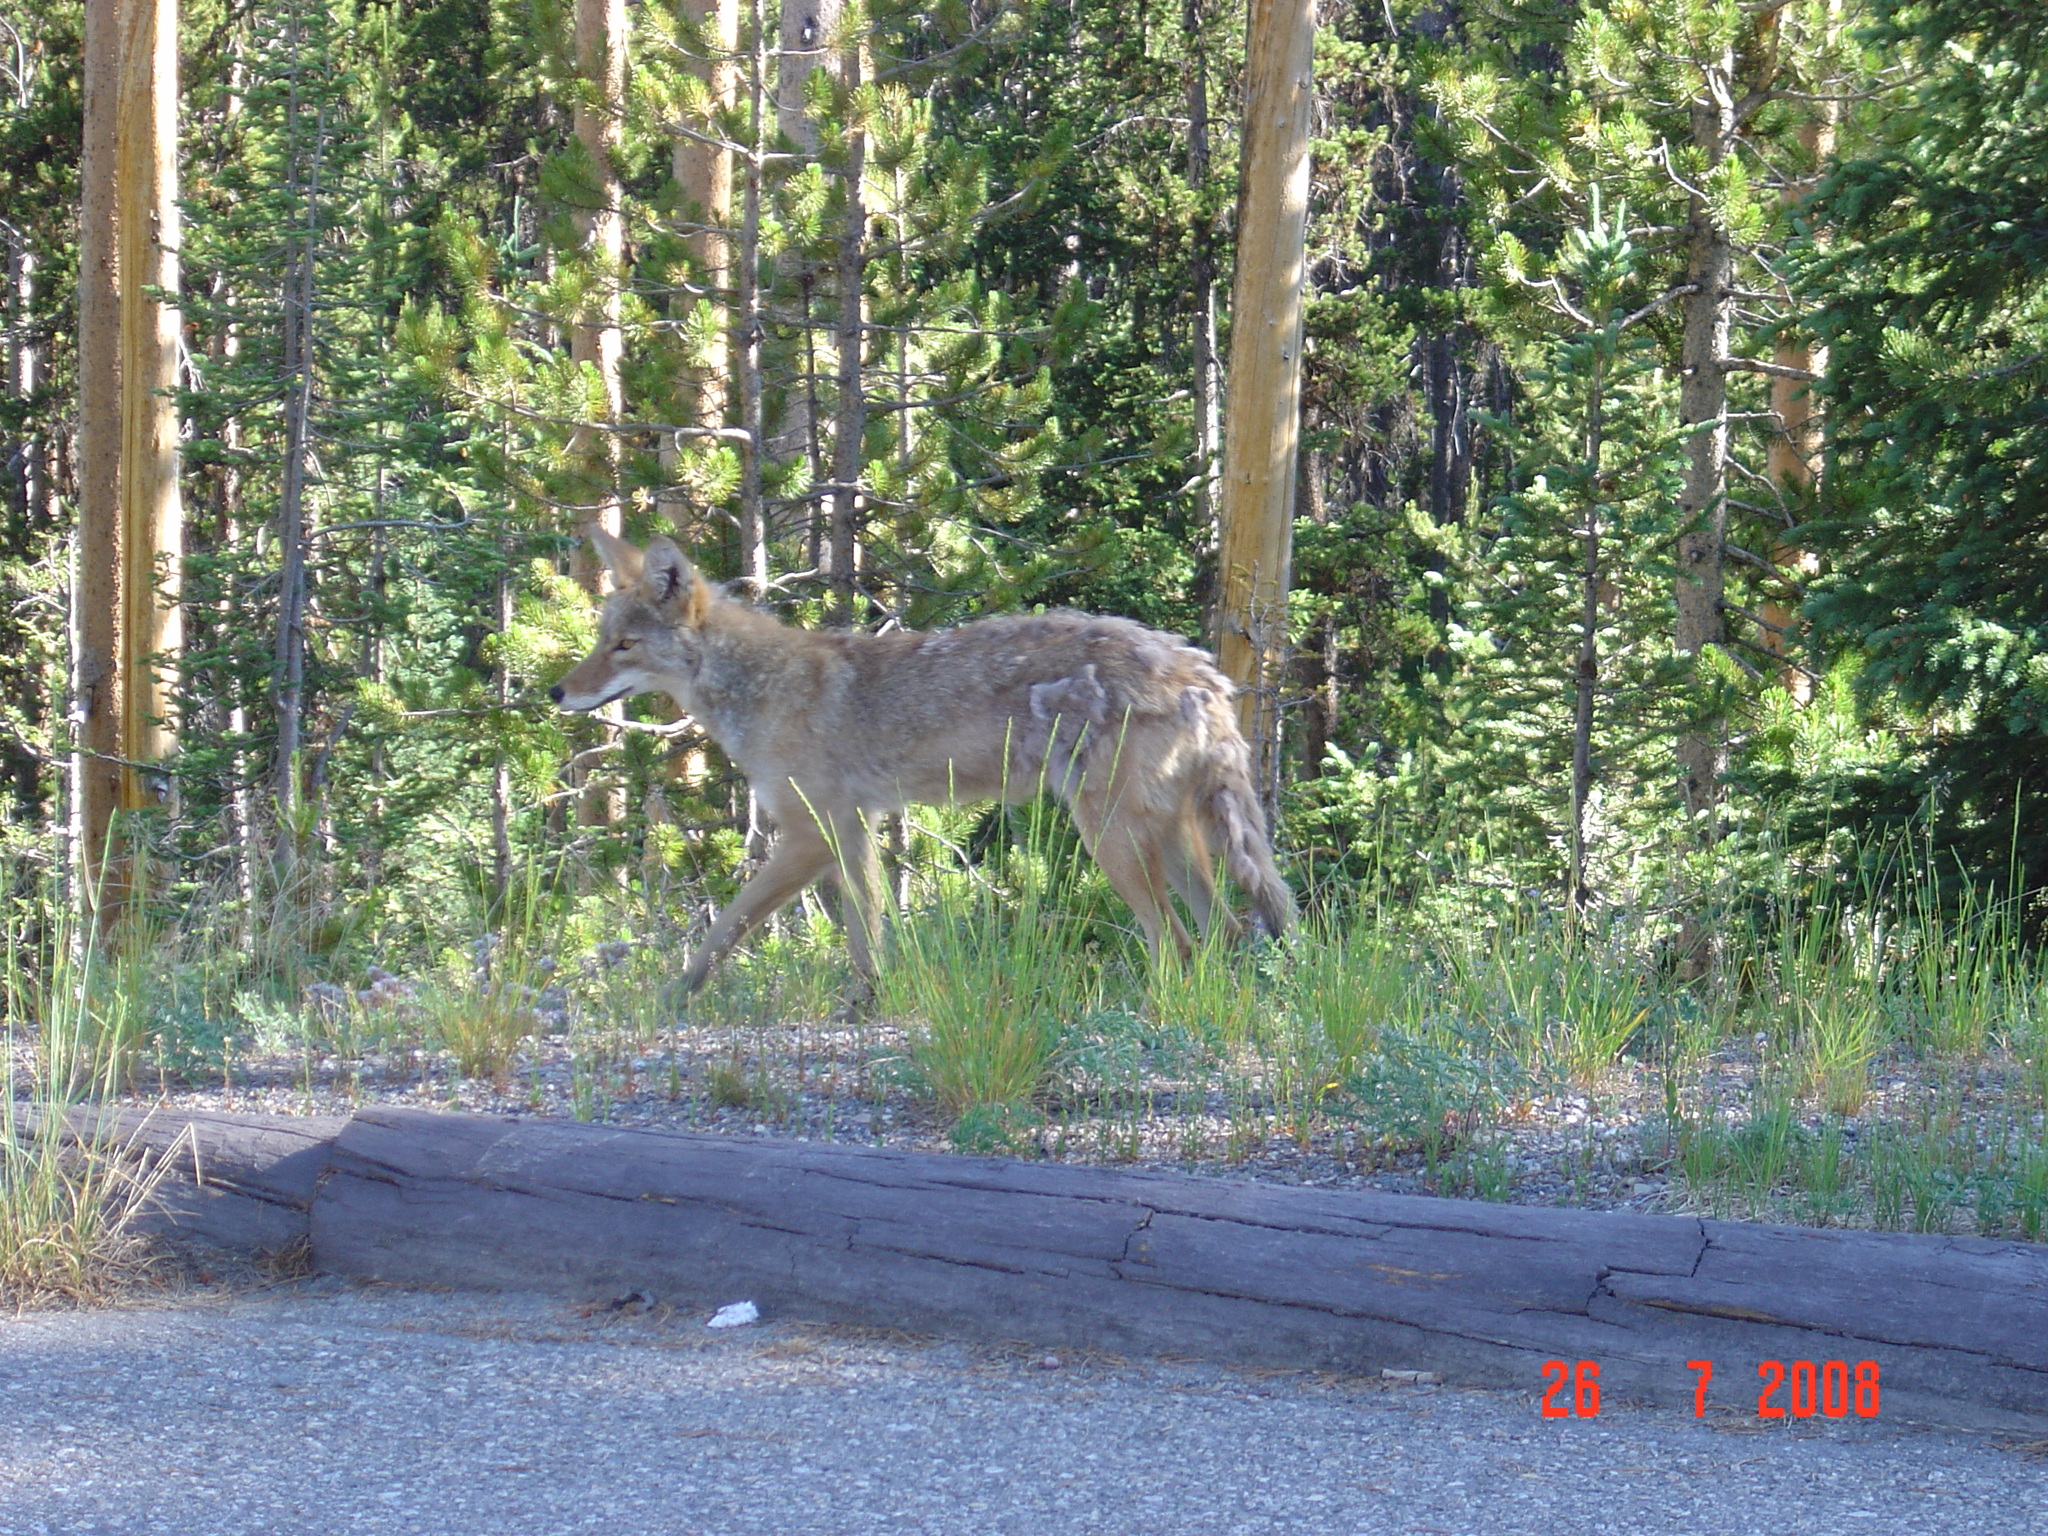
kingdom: Animalia
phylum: Chordata
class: Mammalia
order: Carnivora
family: Canidae
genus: Canis
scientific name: Canis latrans
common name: Coyote
